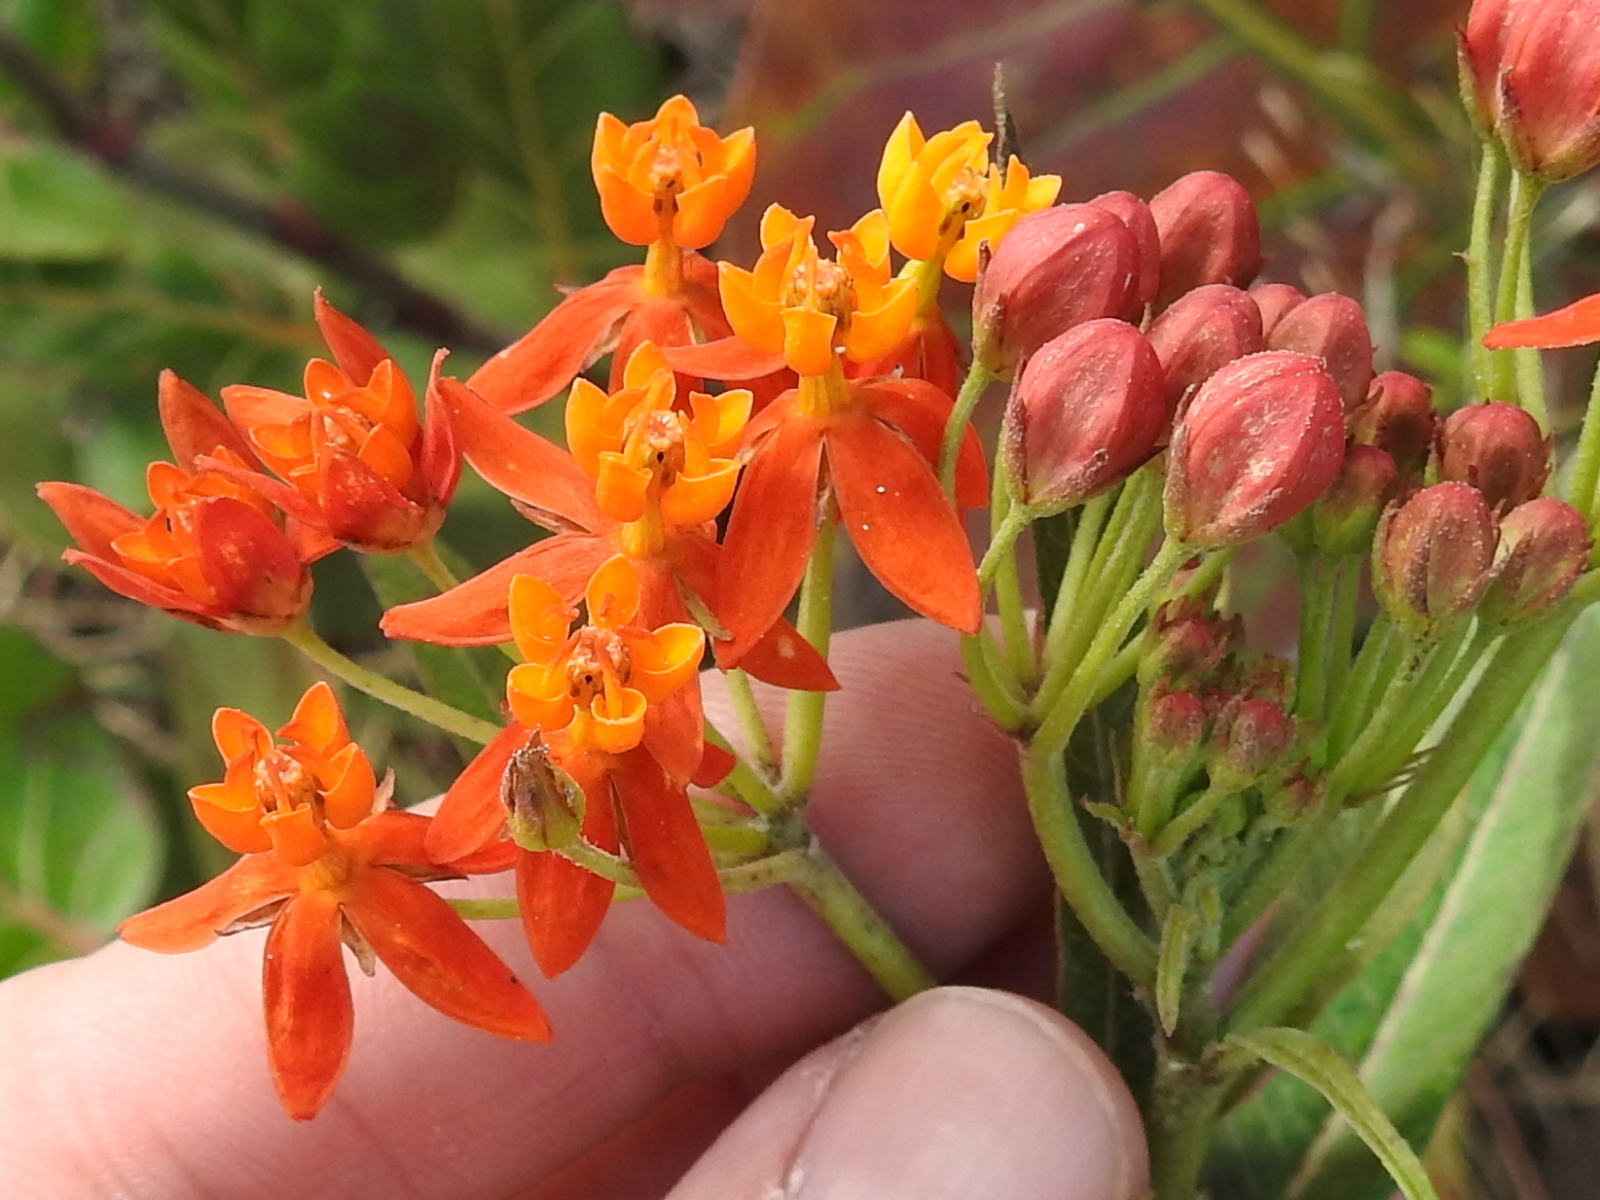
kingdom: Plantae
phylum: Tracheophyta
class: Magnoliopsida
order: Gentianales
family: Apocynaceae
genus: Asclepias
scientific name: Asclepias curassavica
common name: Bloodflower
